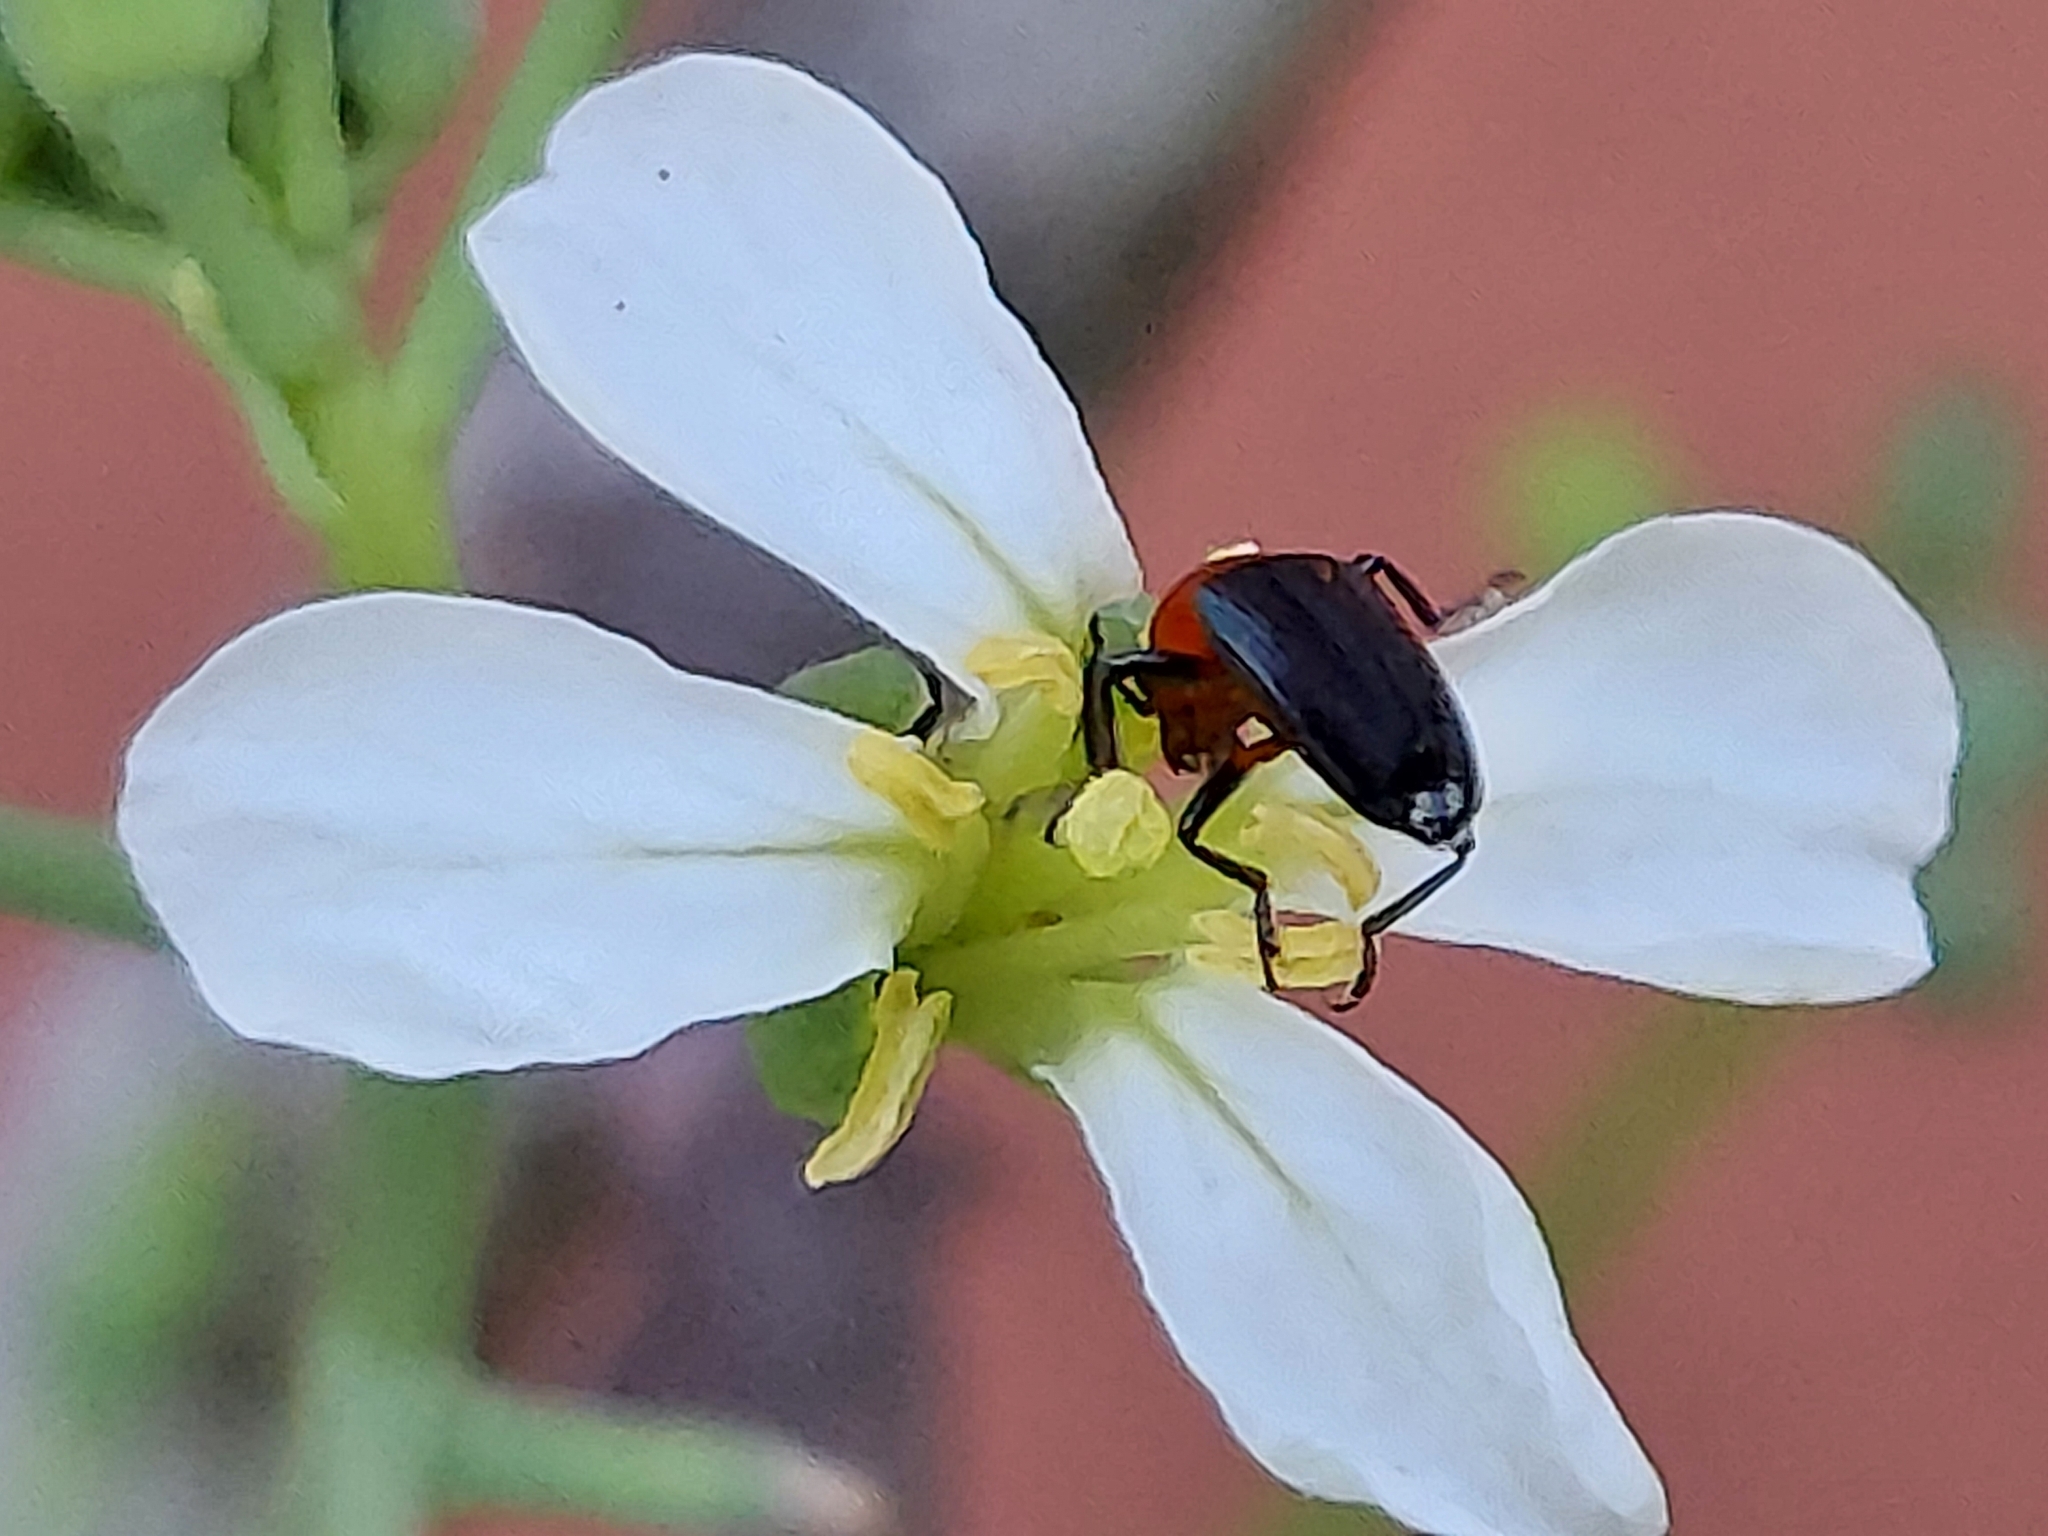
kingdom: Animalia
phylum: Arthropoda
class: Insecta
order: Coleoptera
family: Erotylidae
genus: Languria
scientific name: Languria mozardi
